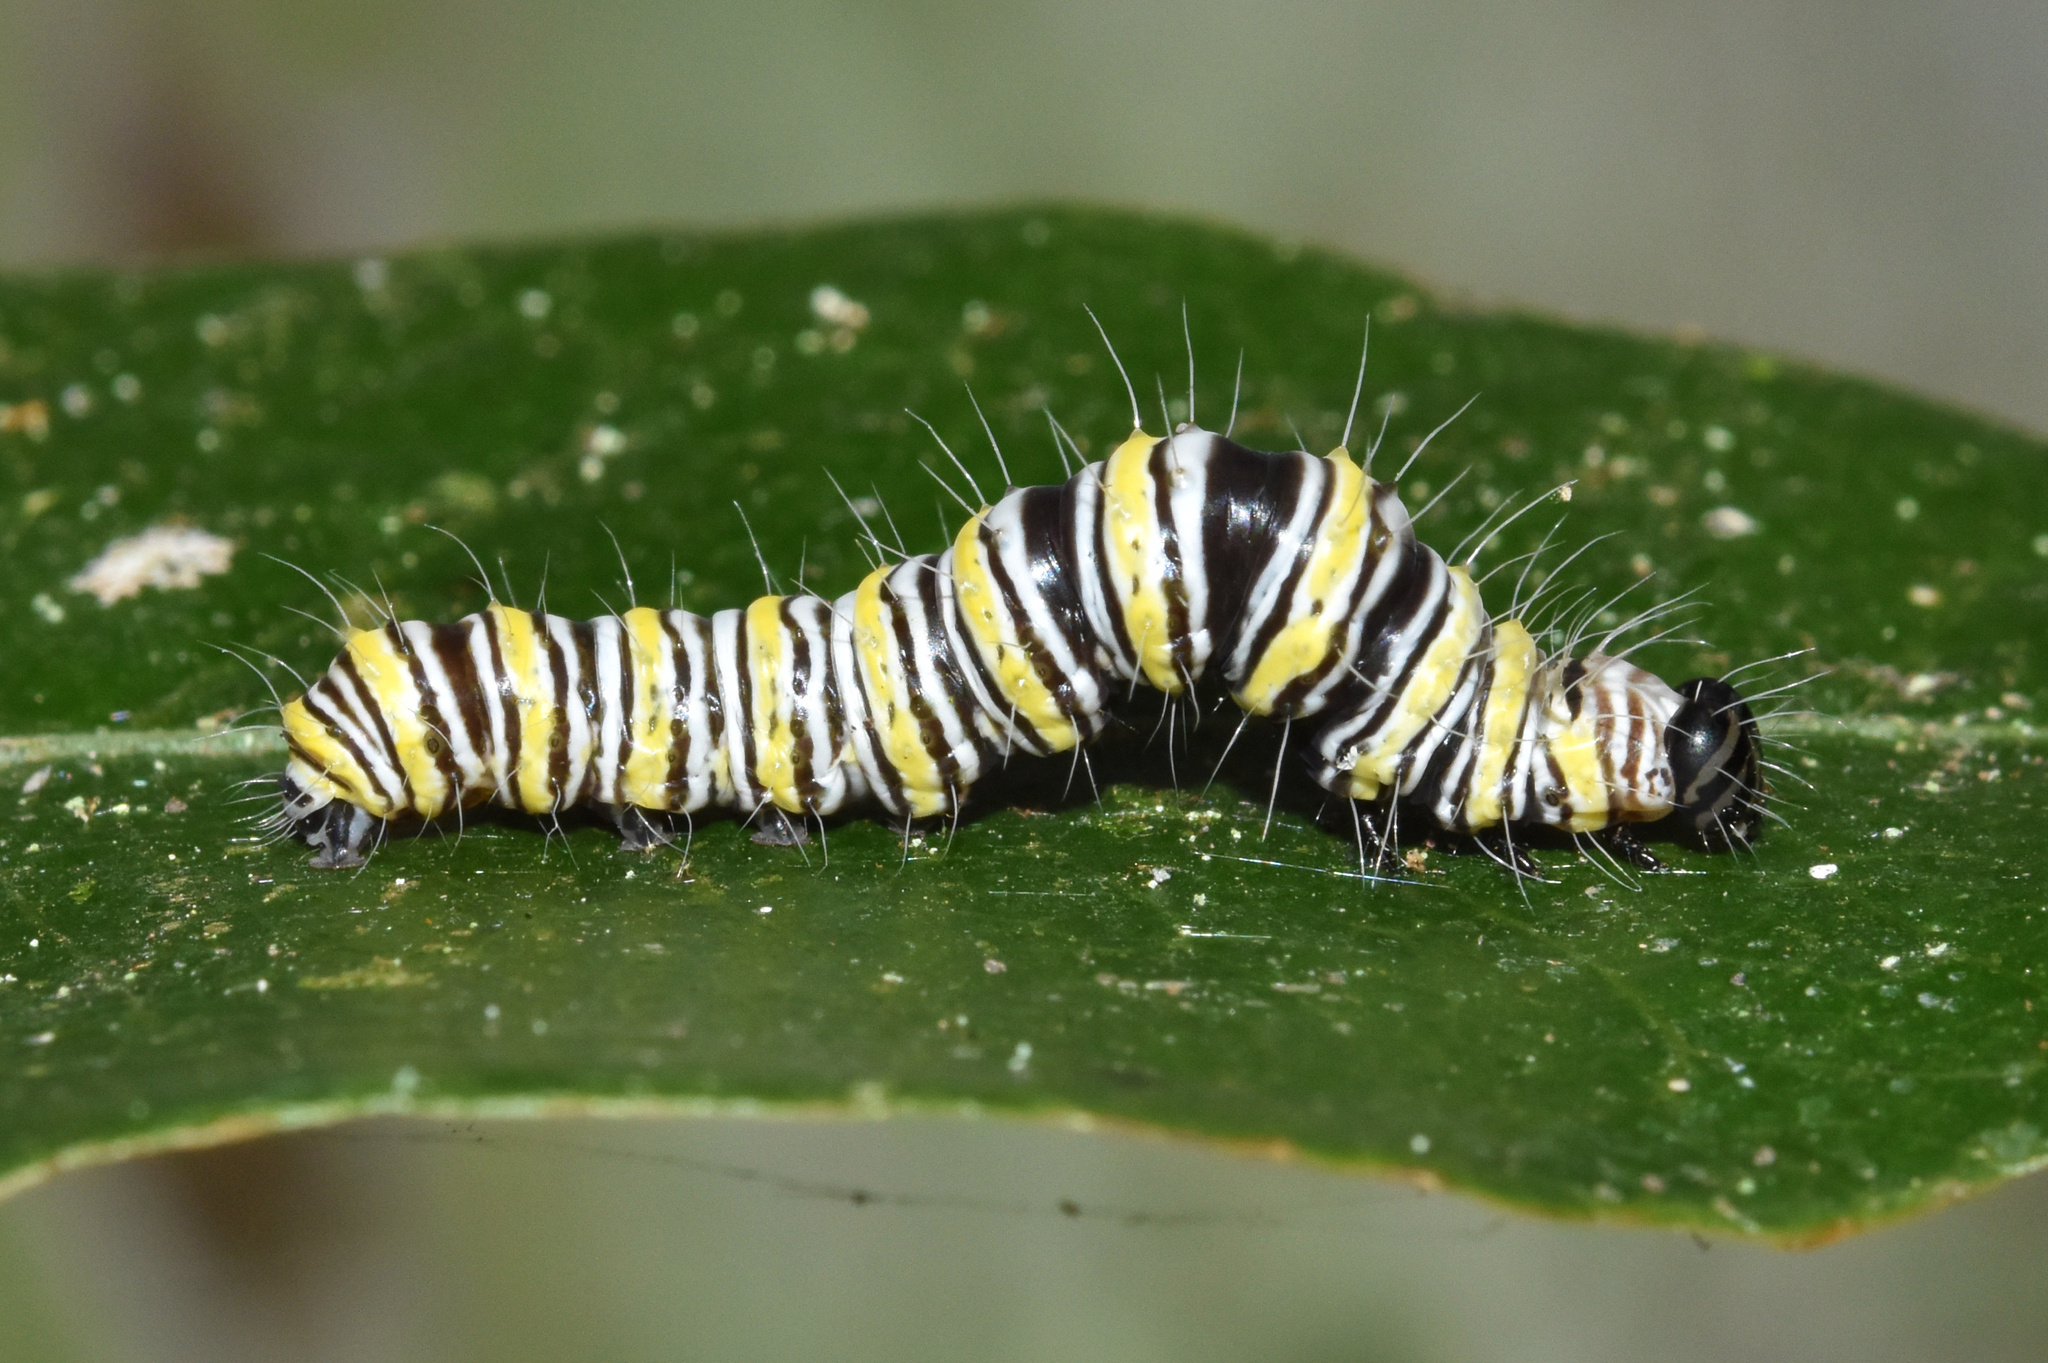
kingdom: Animalia
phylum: Arthropoda
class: Insecta
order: Lepidoptera
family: Erebidae
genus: Egybolis
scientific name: Egybolis vaillantina
